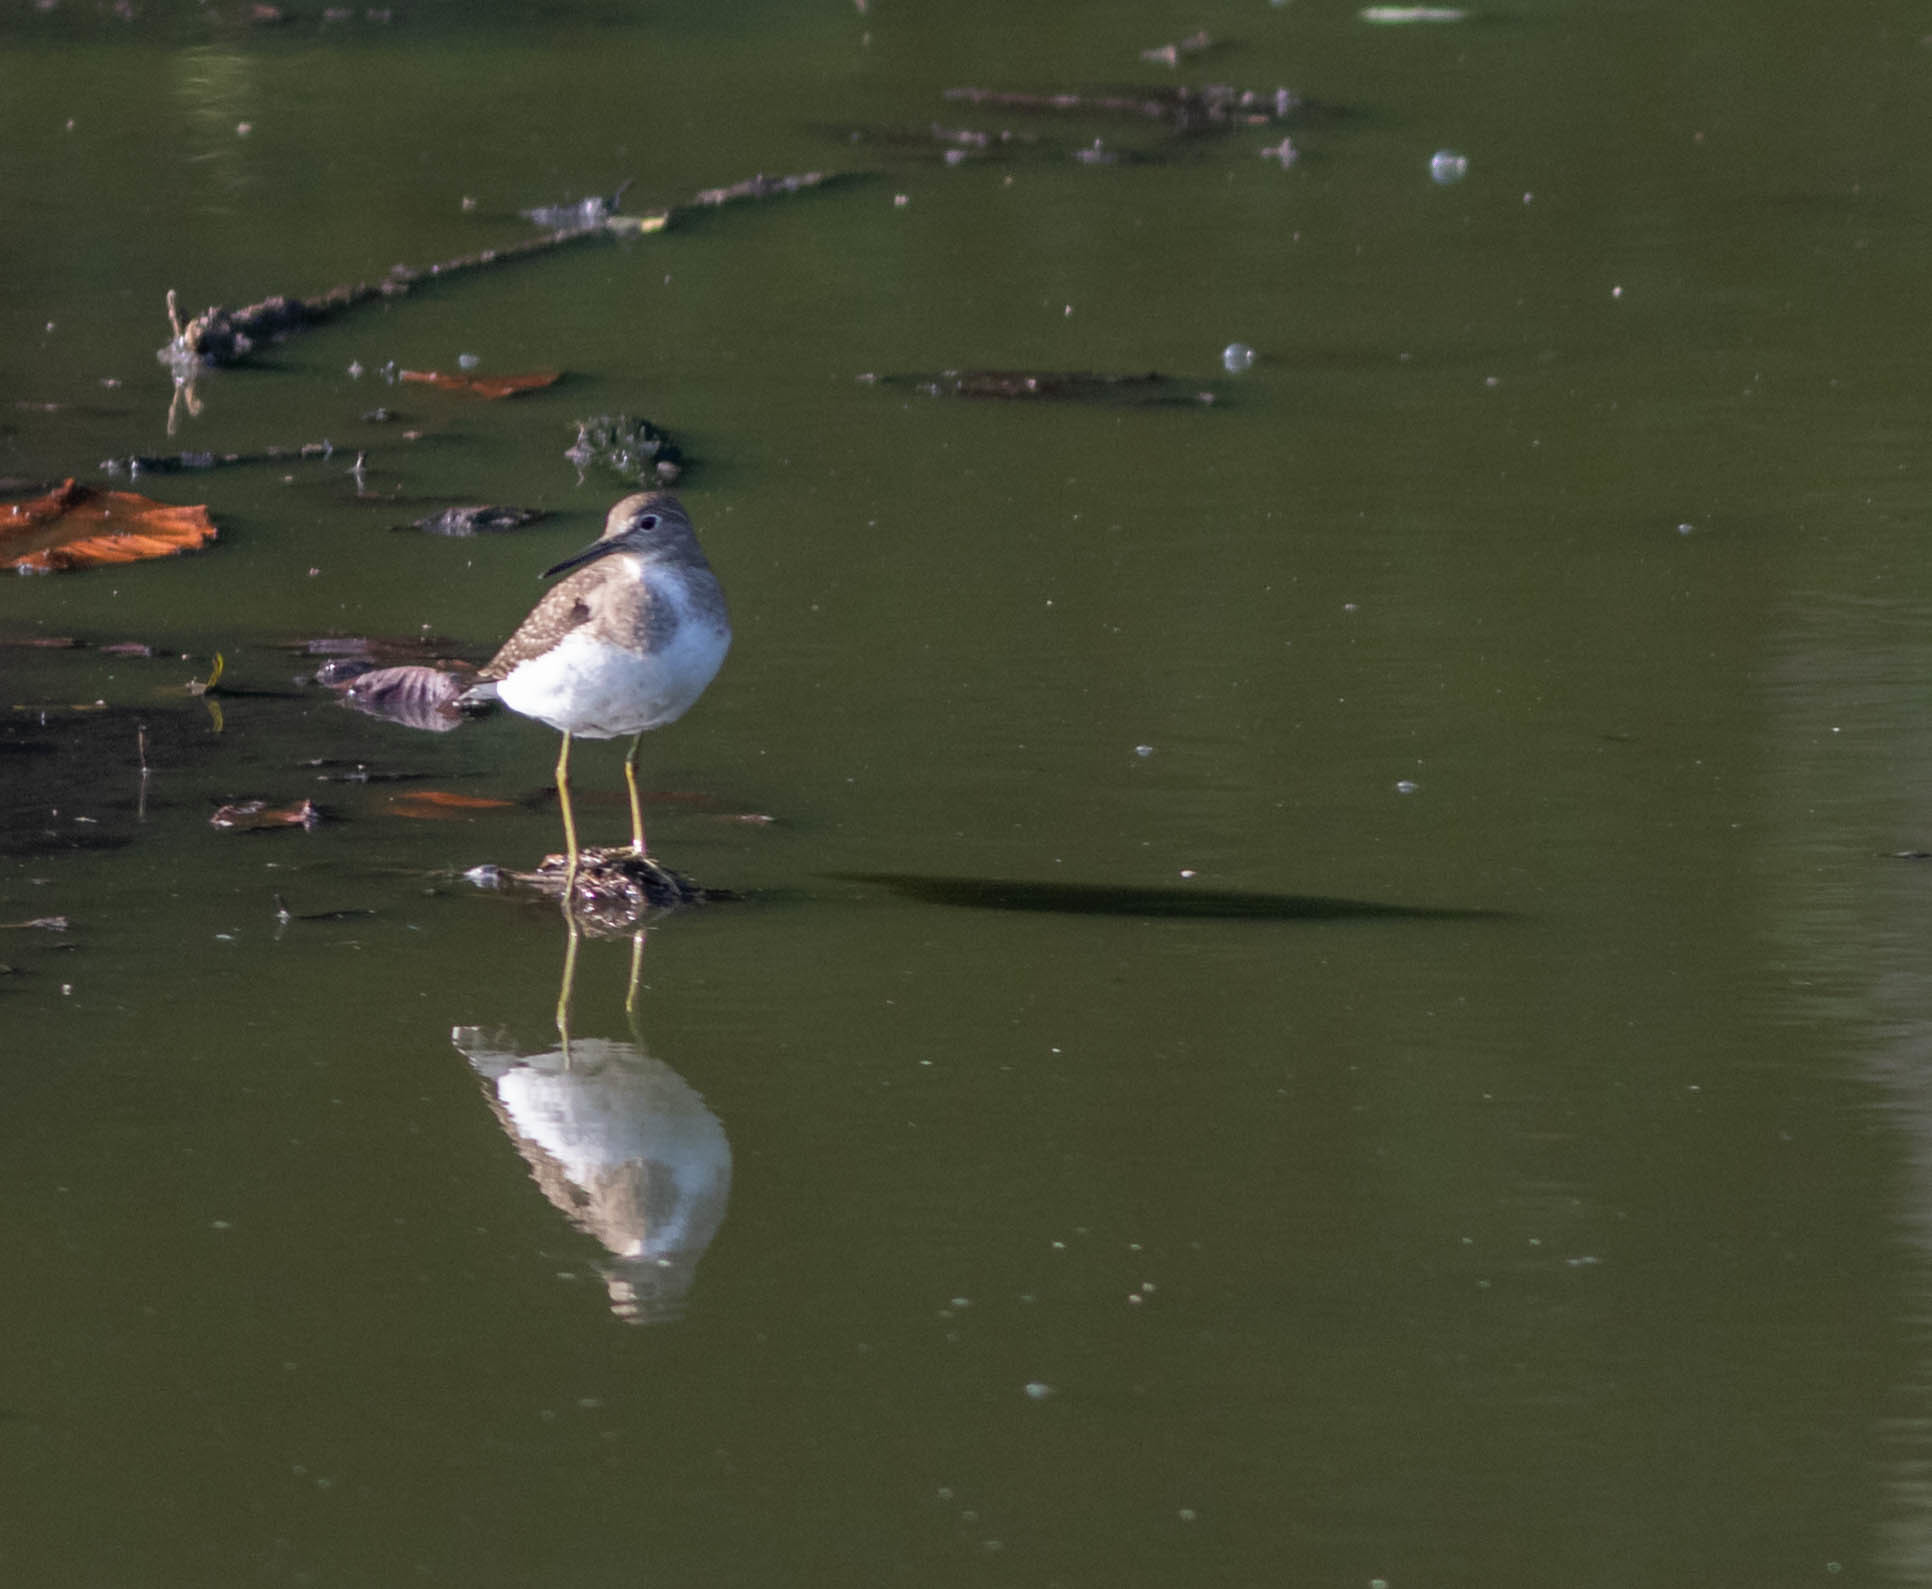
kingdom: Animalia
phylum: Chordata
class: Aves
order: Charadriiformes
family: Scolopacidae
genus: Tringa
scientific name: Tringa solitaria
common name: Solitary sandpiper
